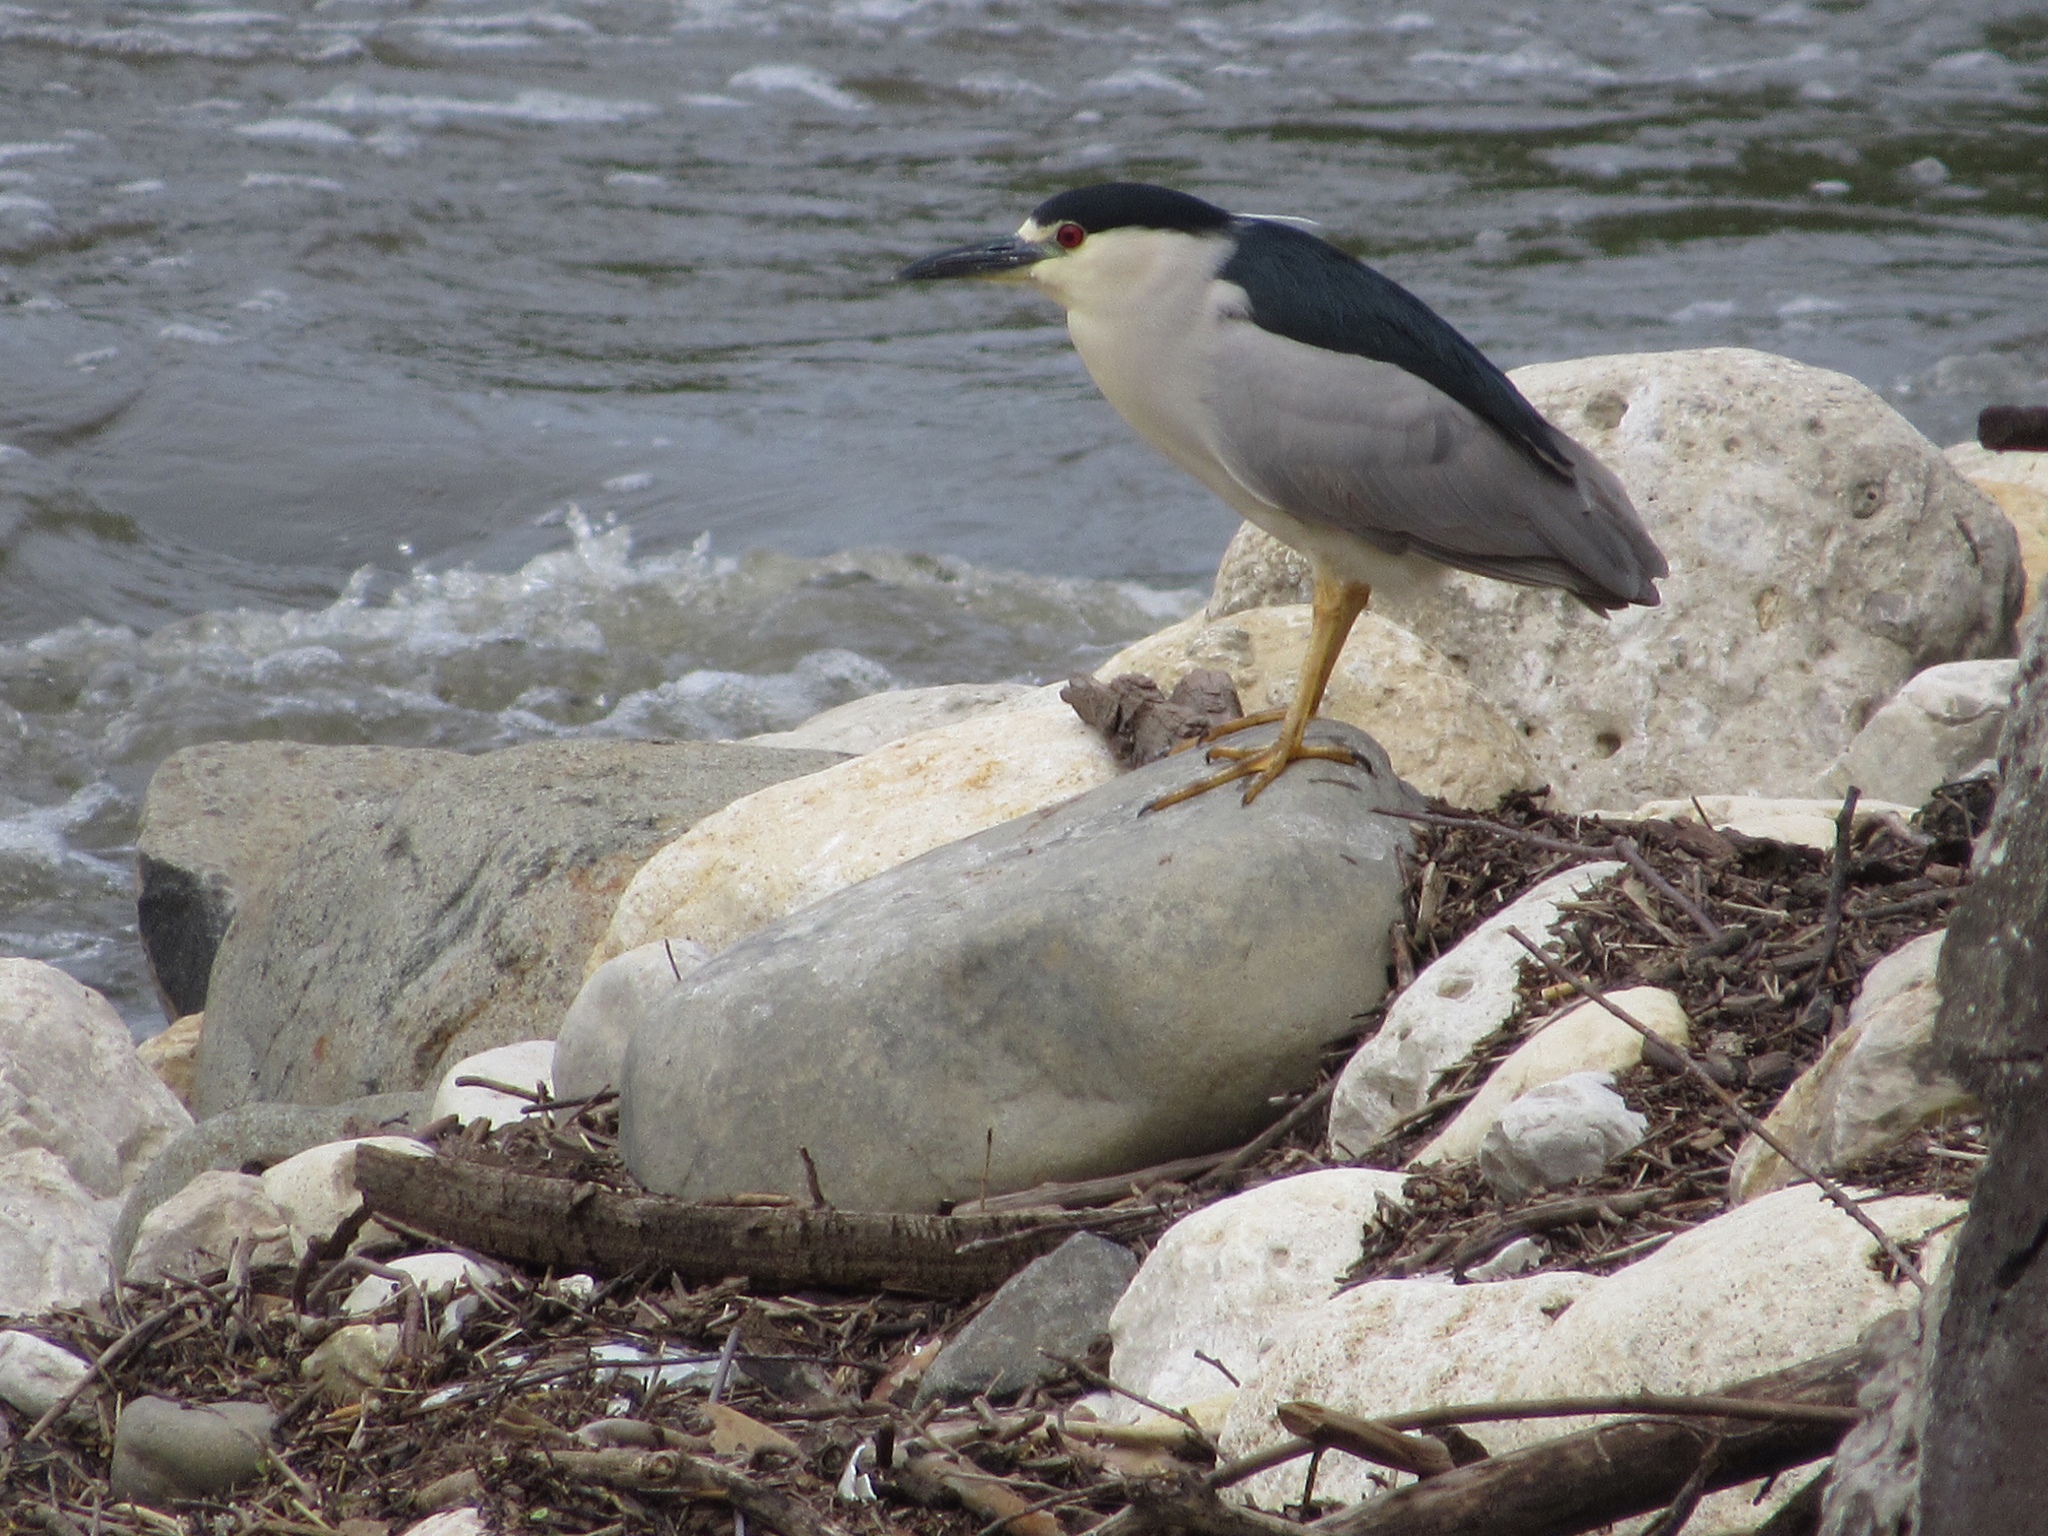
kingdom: Animalia
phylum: Chordata
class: Aves
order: Pelecaniformes
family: Ardeidae
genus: Nycticorax
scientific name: Nycticorax nycticorax
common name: Black-crowned night heron
